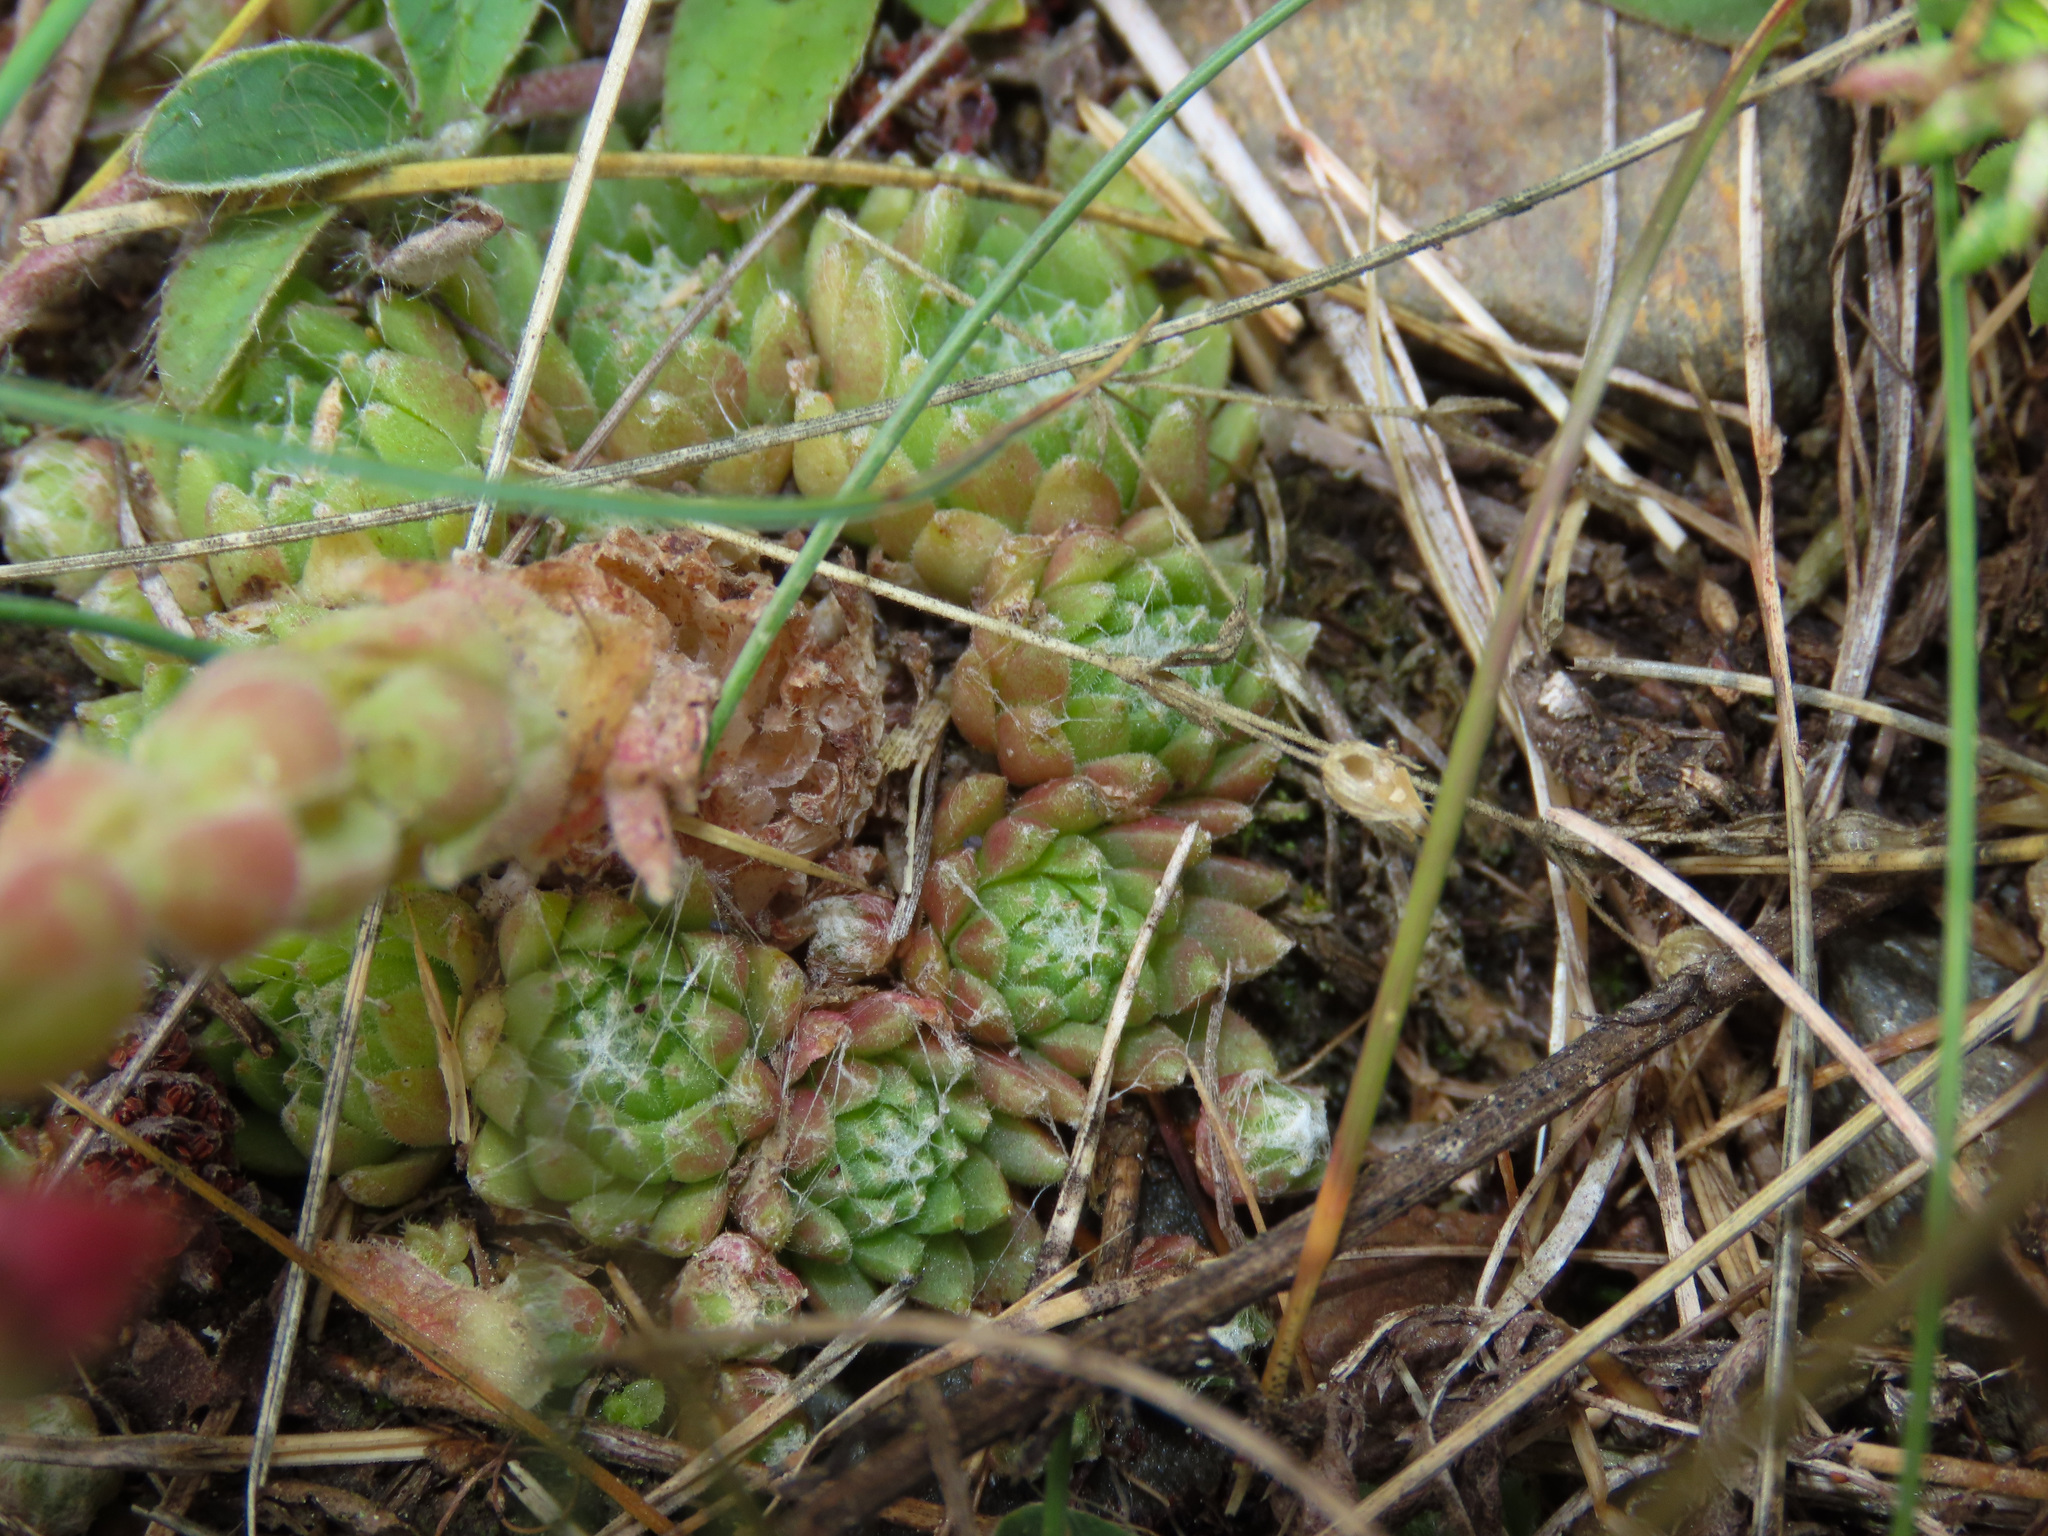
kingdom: Plantae
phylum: Tracheophyta
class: Magnoliopsida
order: Saxifragales
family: Crassulaceae
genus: Sempervivum
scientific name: Sempervivum arachnoideum
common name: Cobweb house-leek
